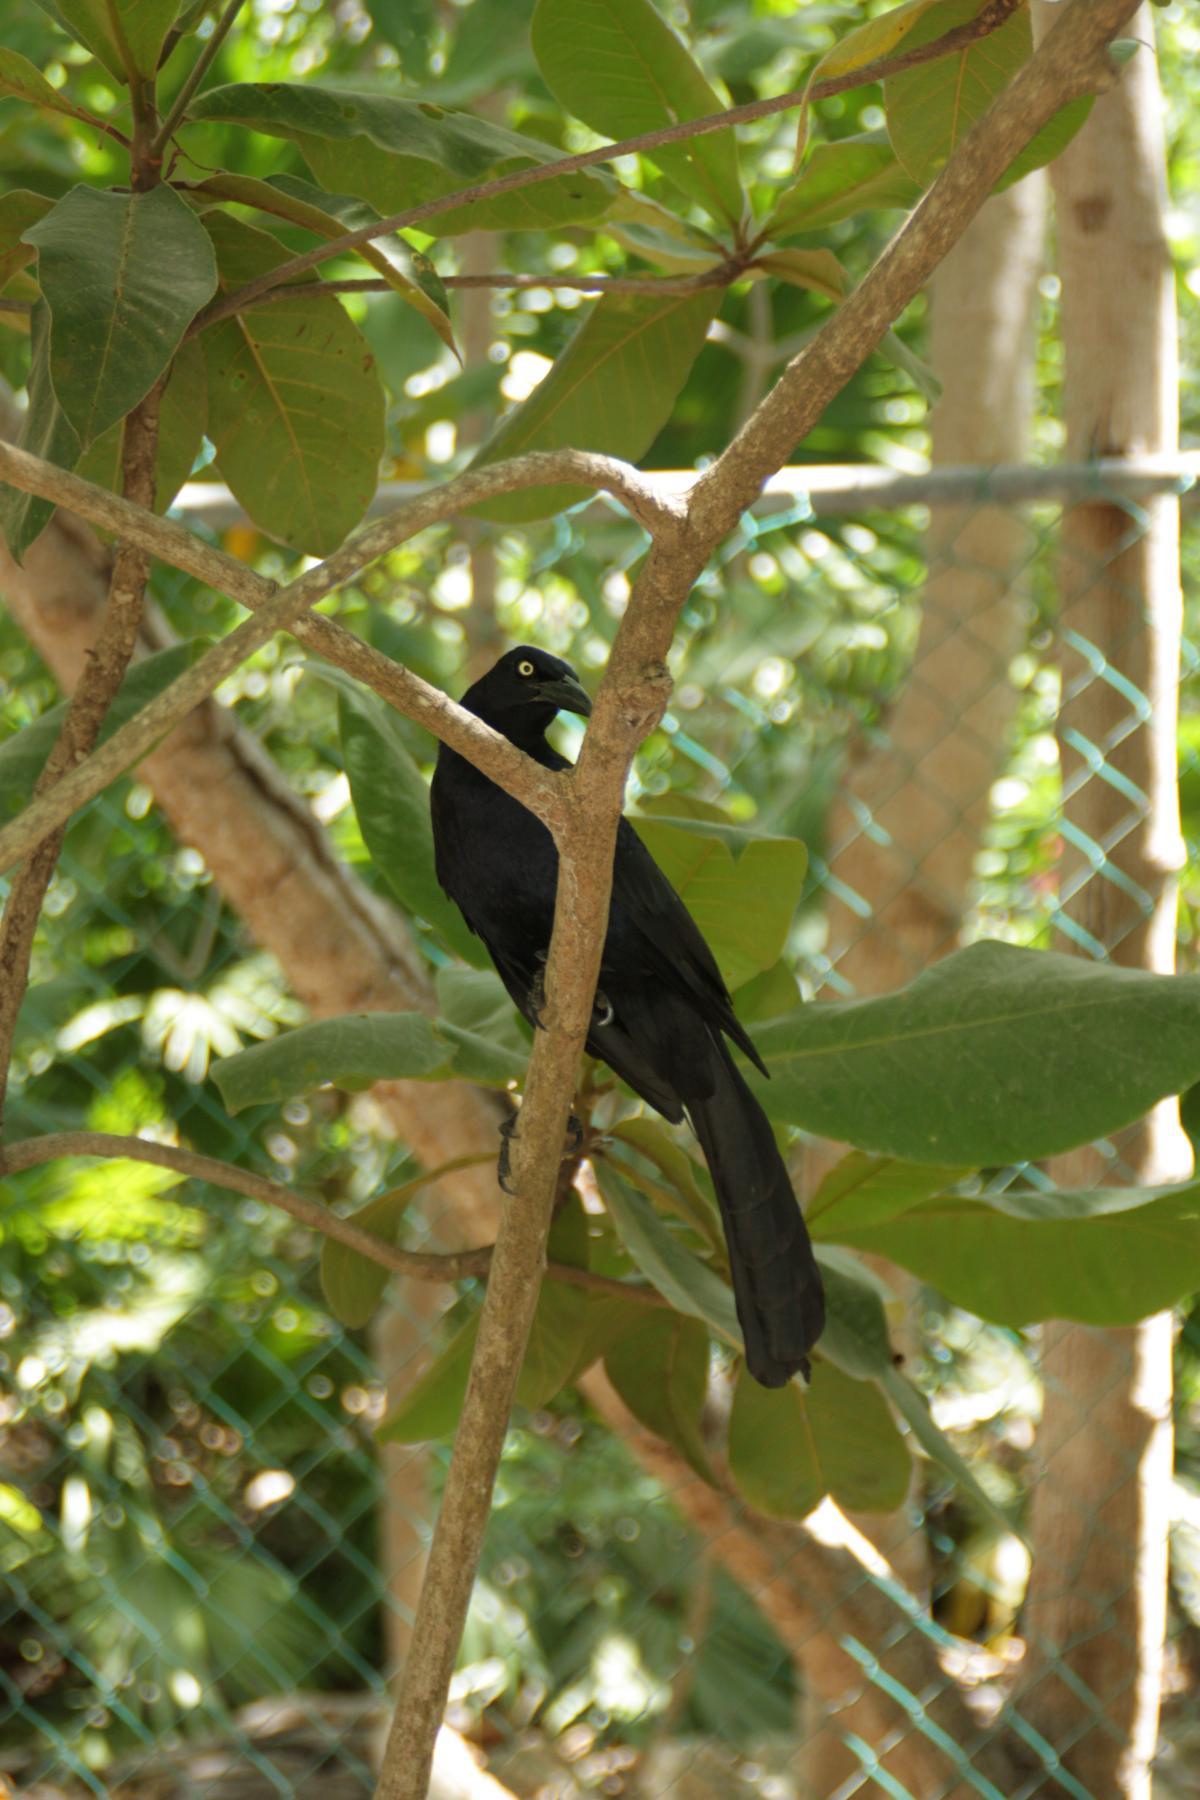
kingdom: Animalia
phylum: Chordata
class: Aves
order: Passeriformes
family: Icteridae
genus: Quiscalus
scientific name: Quiscalus mexicanus
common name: Great-tailed grackle
